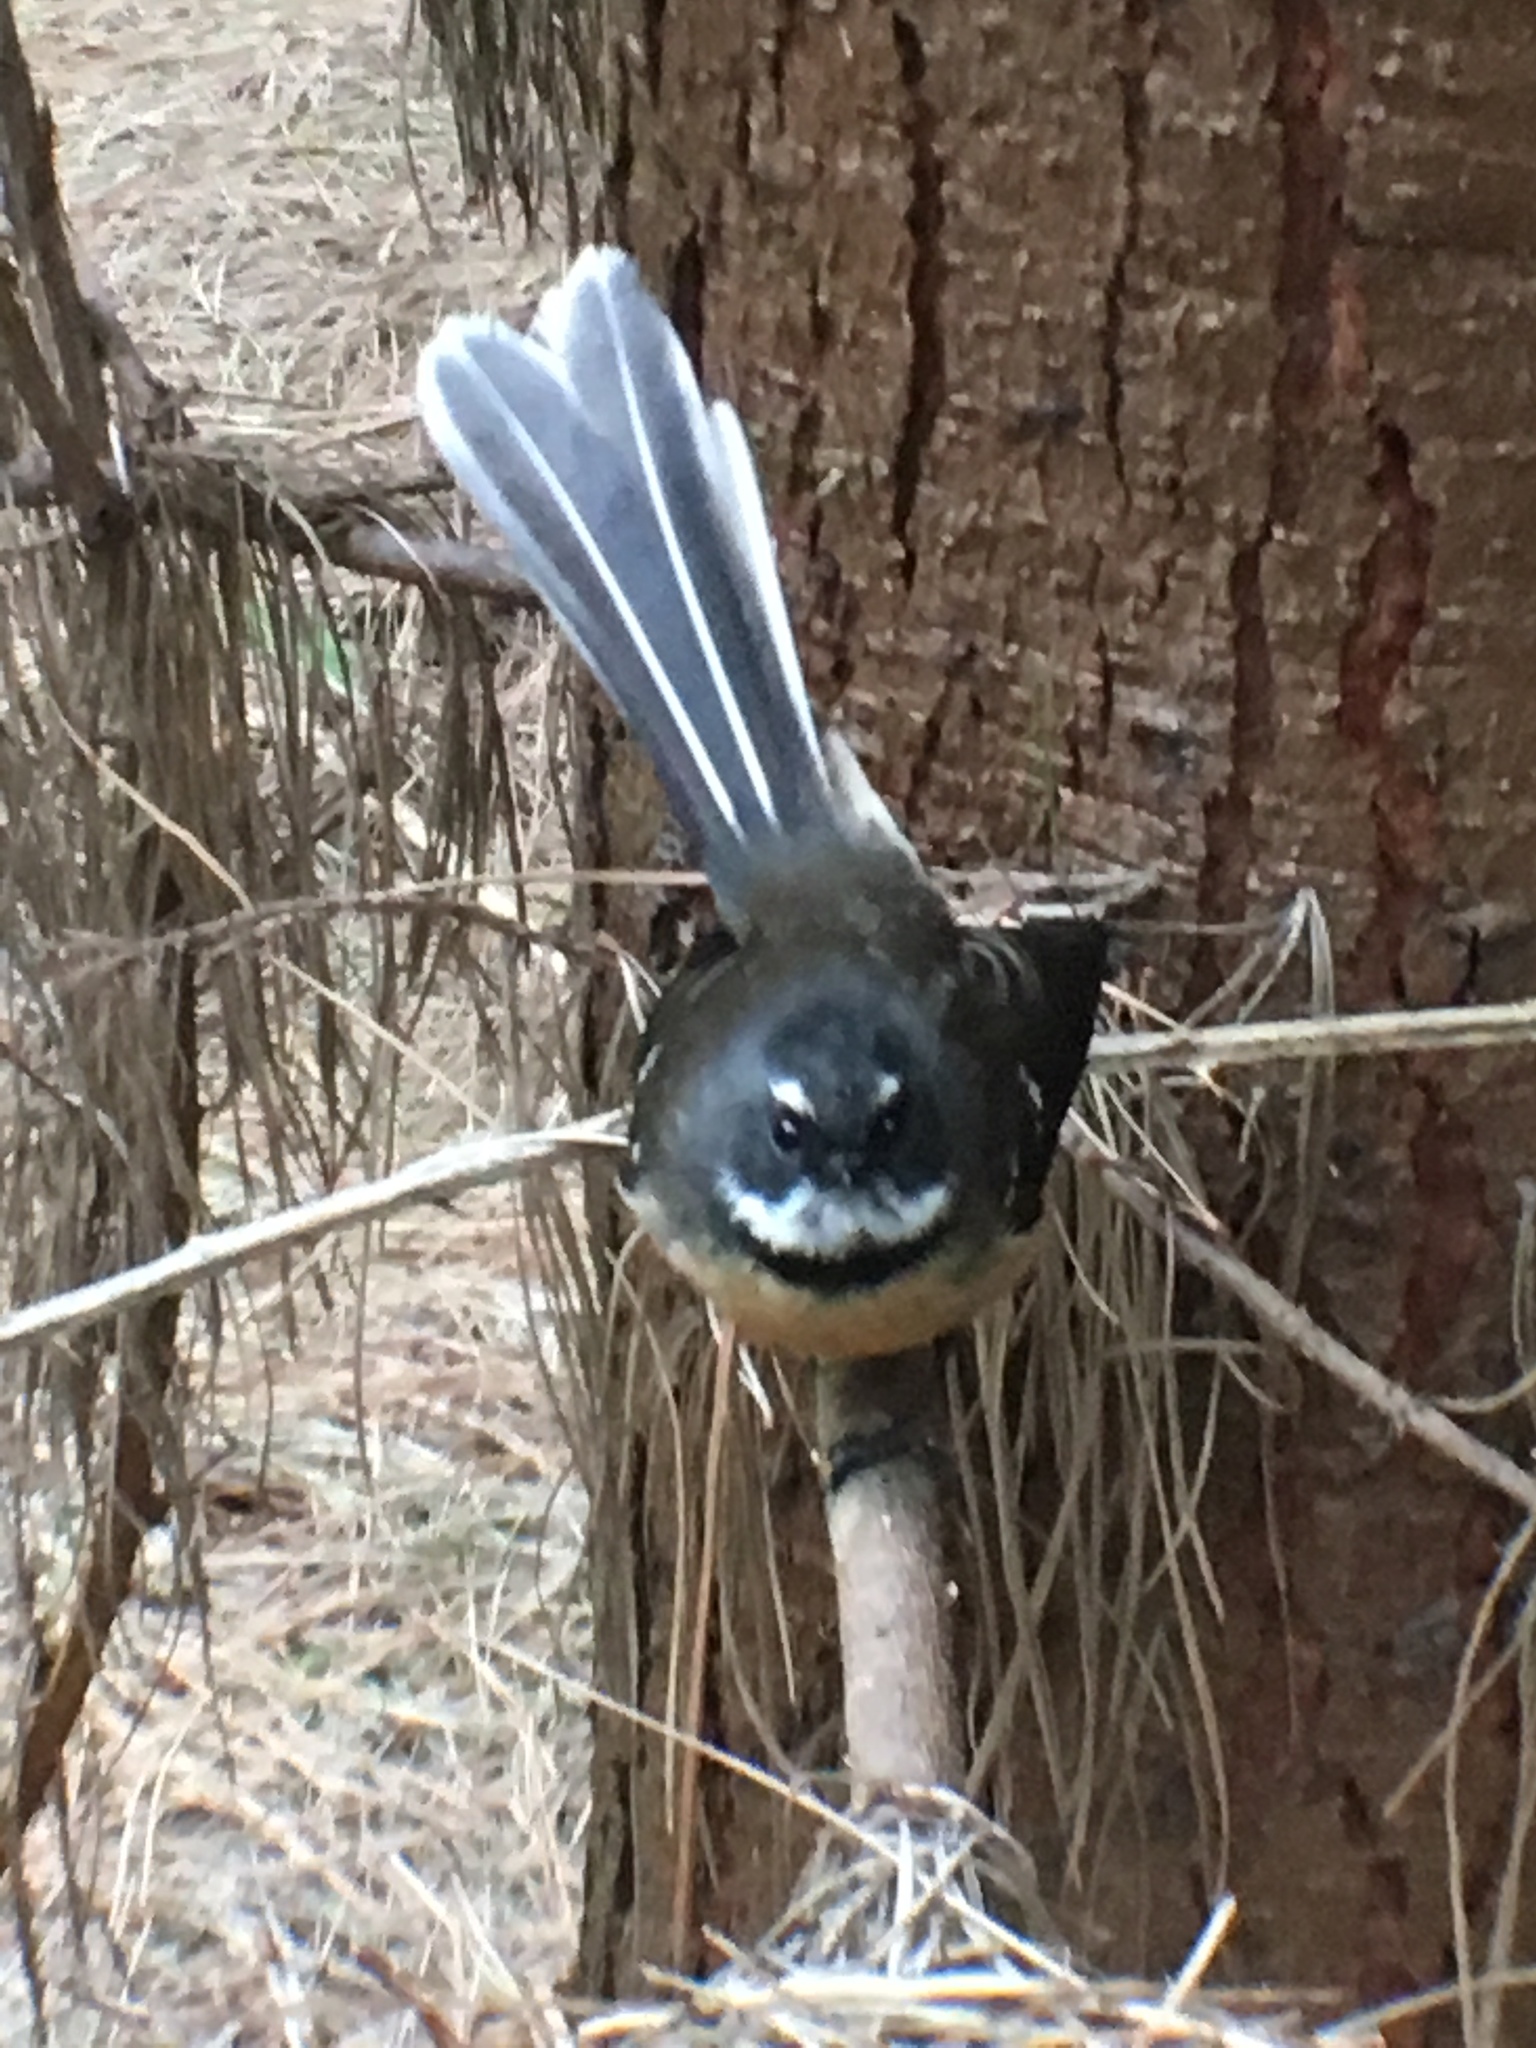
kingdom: Animalia
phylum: Chordata
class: Aves
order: Passeriformes
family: Rhipiduridae
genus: Rhipidura
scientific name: Rhipidura fuliginosa
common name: New zealand fantail
